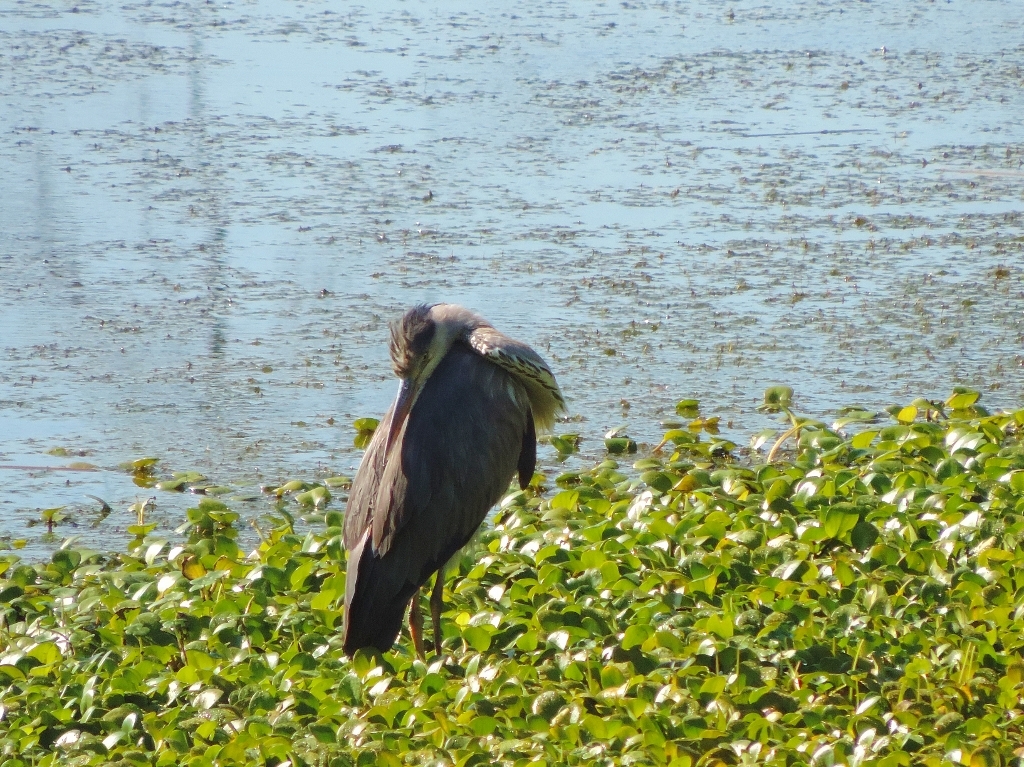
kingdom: Animalia
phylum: Chordata
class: Aves
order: Pelecaniformes
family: Ardeidae
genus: Ardea
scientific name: Ardea cinerea
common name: Grey heron
